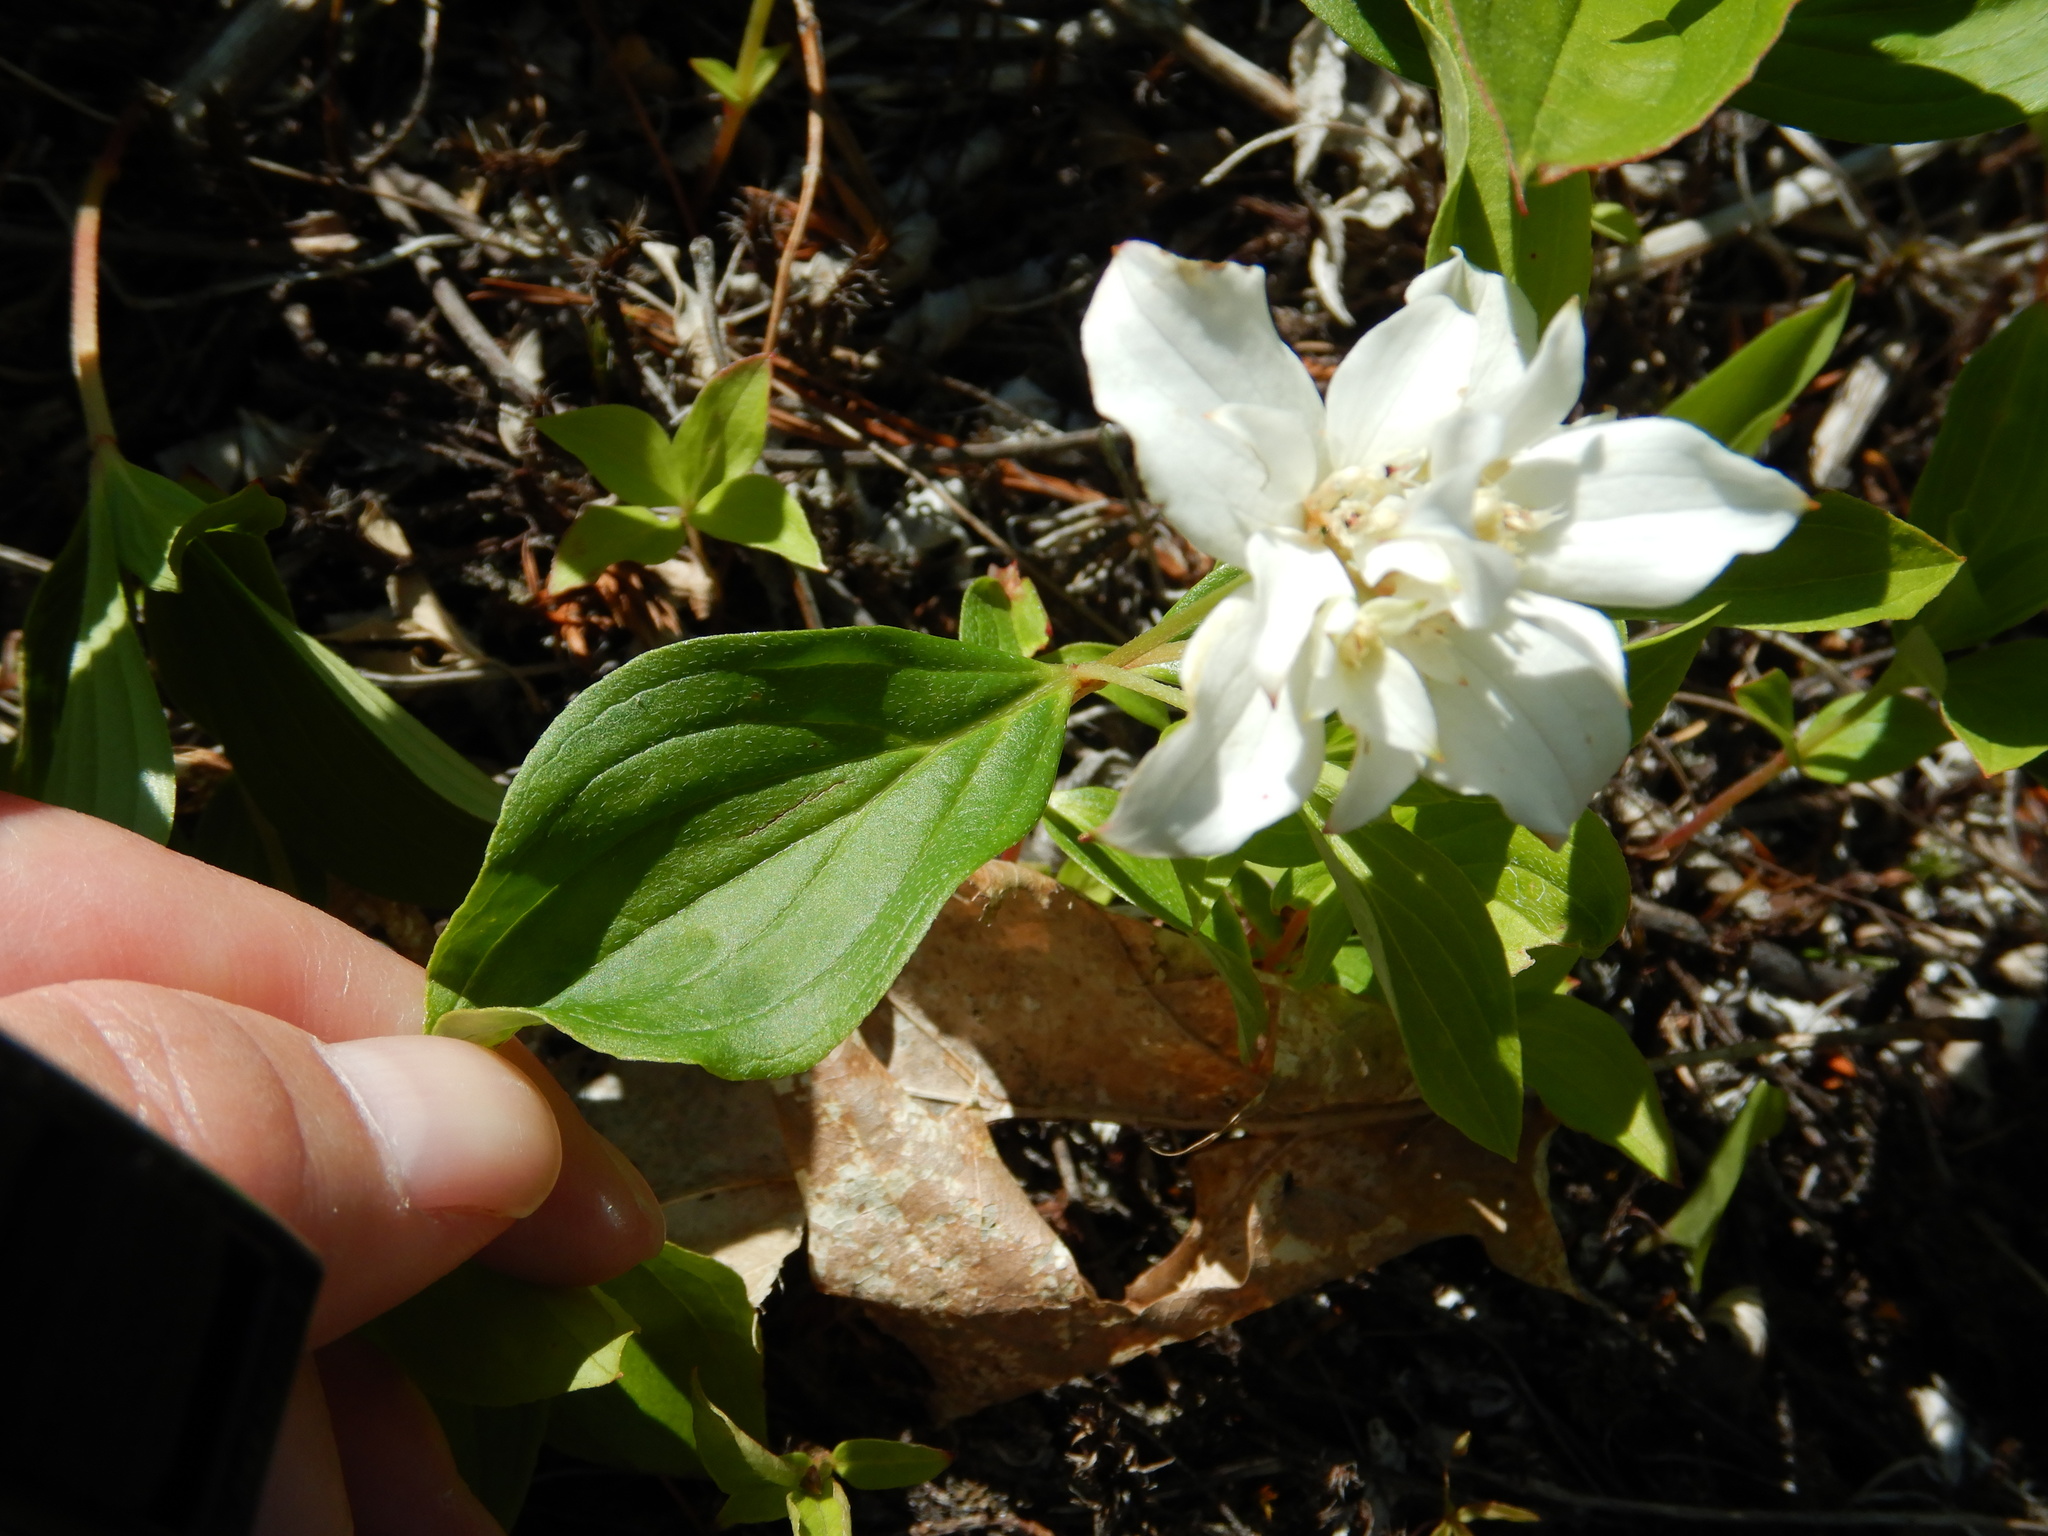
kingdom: Plantae
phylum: Tracheophyta
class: Magnoliopsida
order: Cornales
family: Cornaceae
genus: Cornus
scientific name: Cornus canadensis
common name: Creeping dogwood
